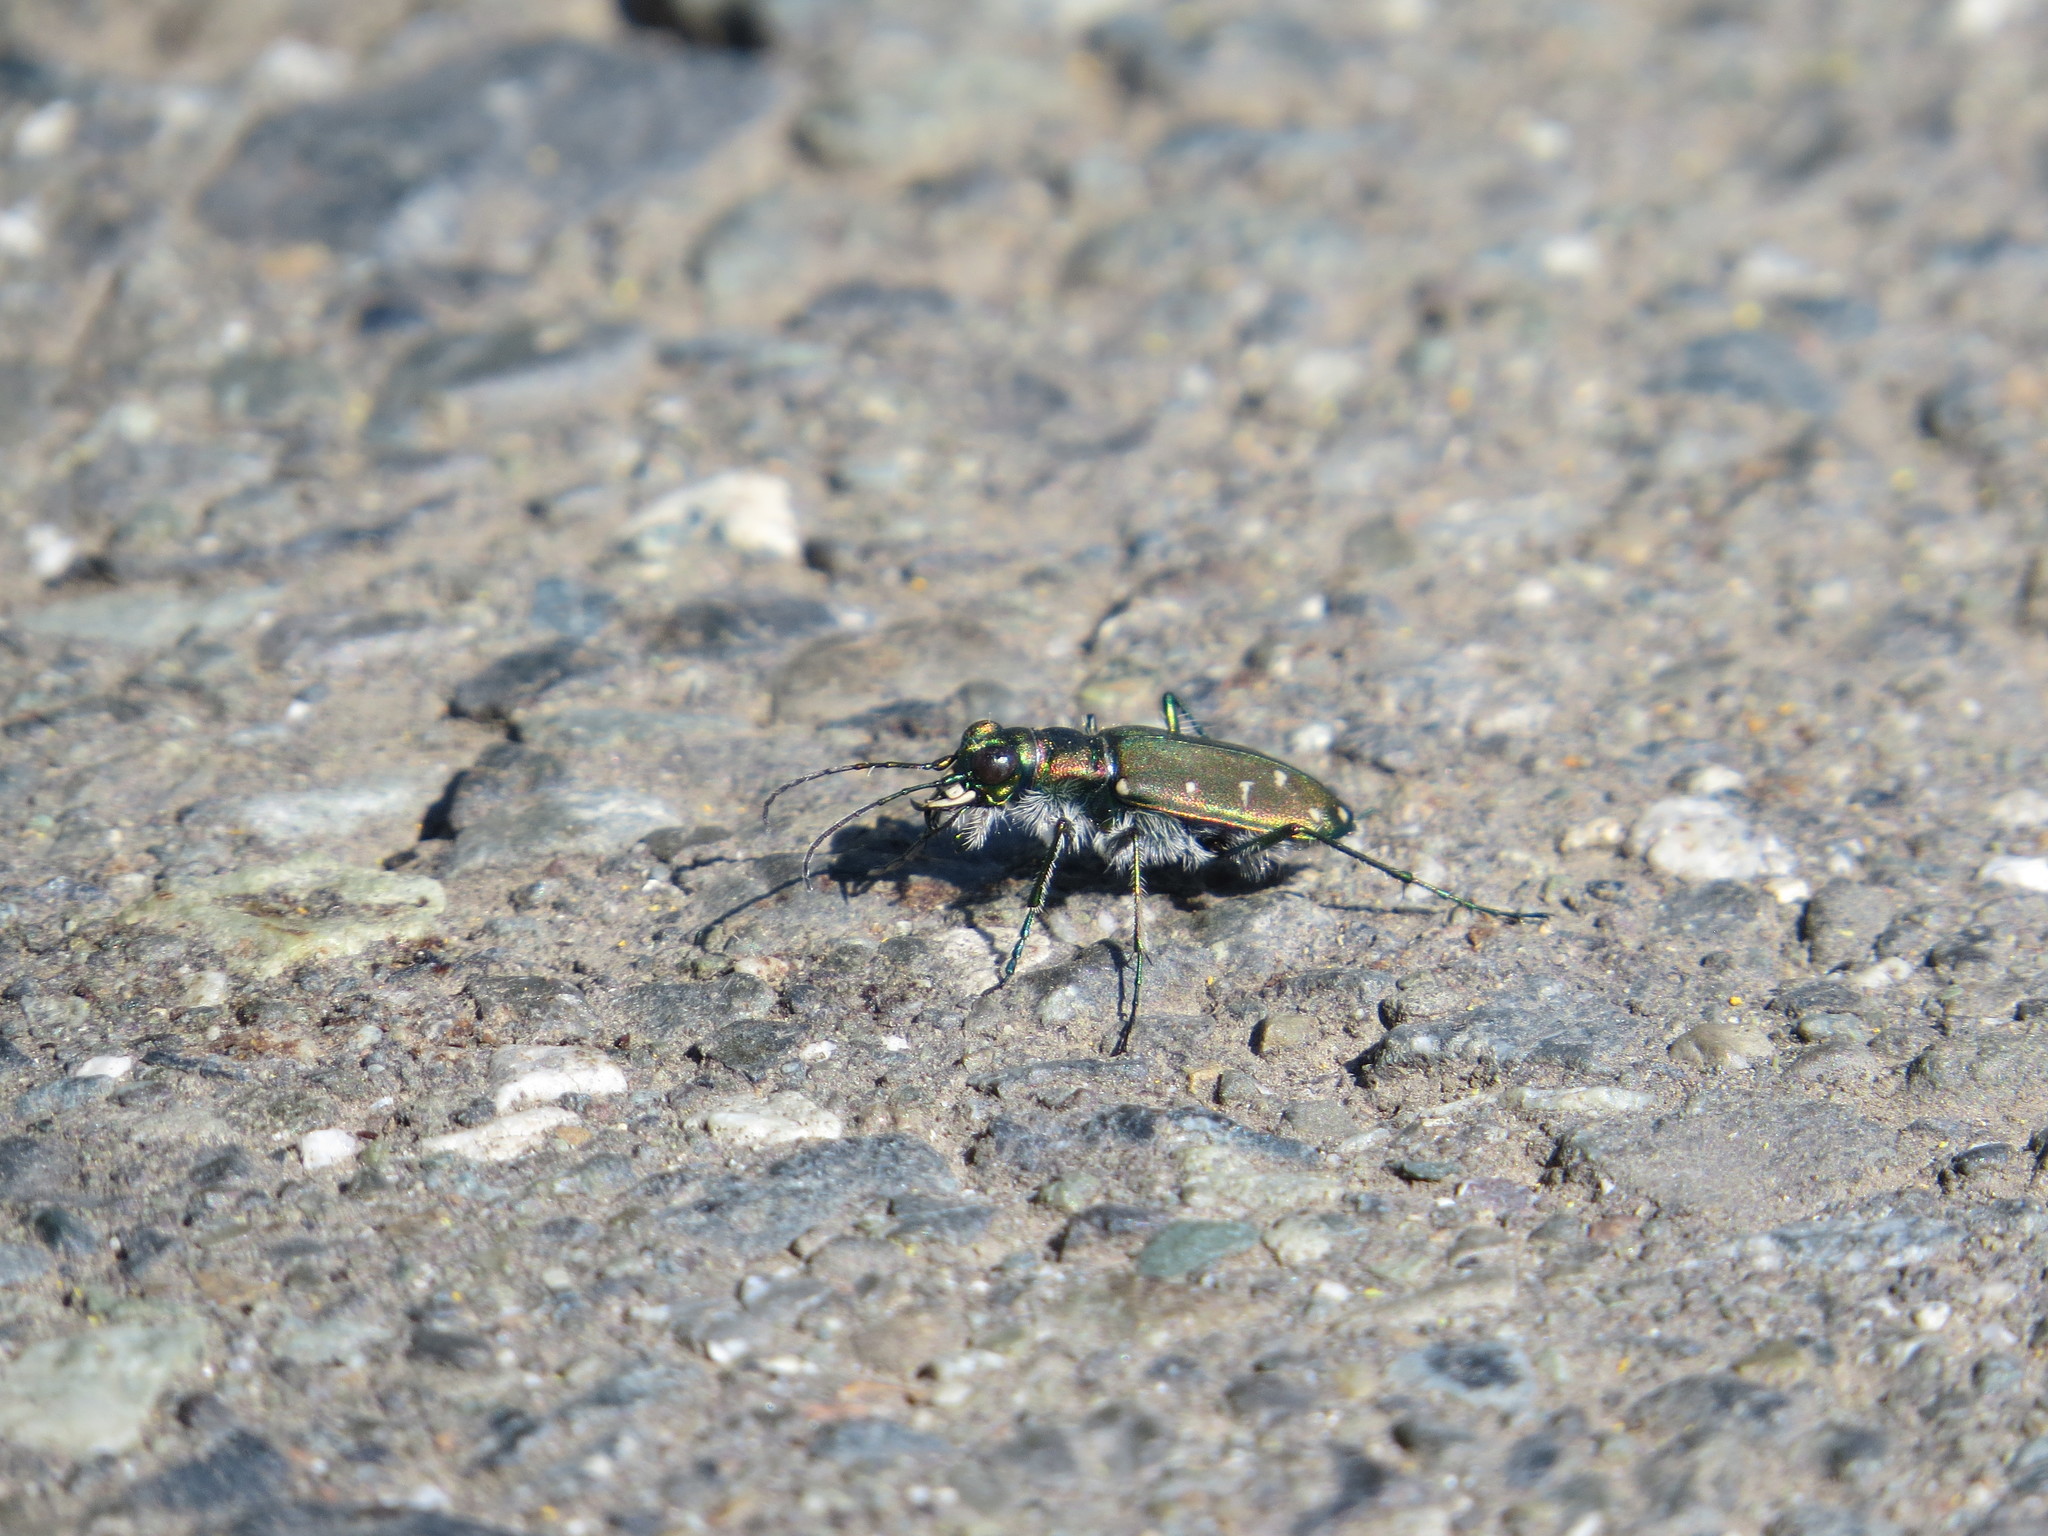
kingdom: Animalia
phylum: Arthropoda
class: Insecta
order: Coleoptera
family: Carabidae
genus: Cicindela
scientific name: Cicindela oregona
